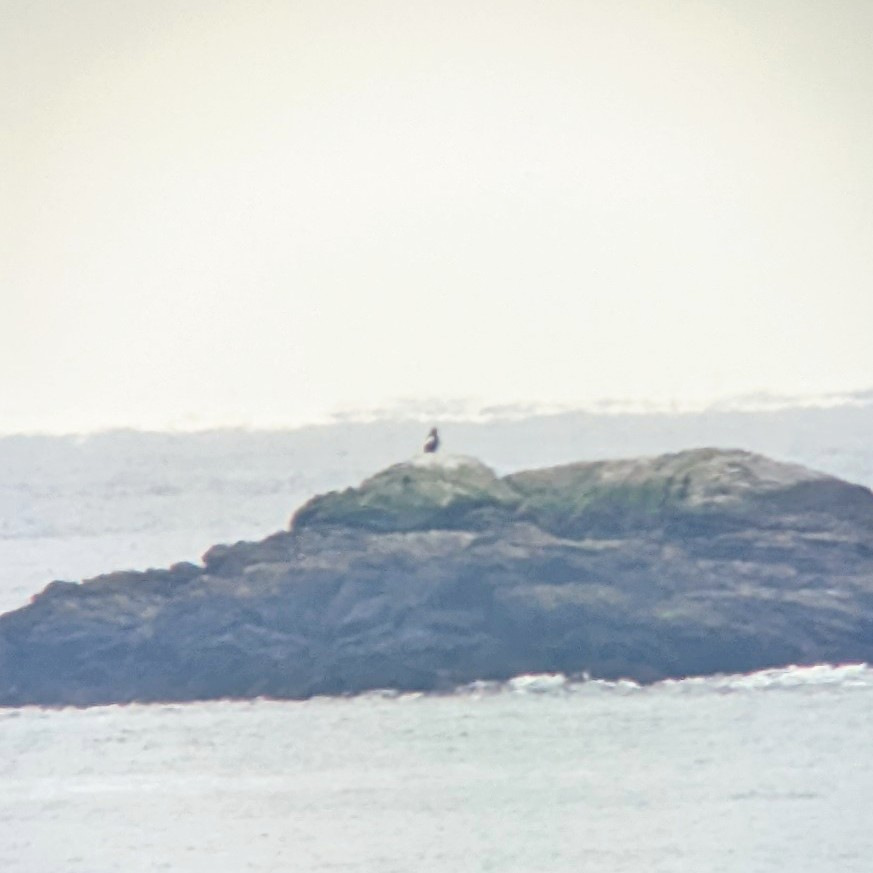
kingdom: Animalia
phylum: Chordata
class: Aves
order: Accipitriformes
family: Accipitridae
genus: Haliaeetus
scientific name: Haliaeetus pelagicus
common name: Steller's sea eagle
